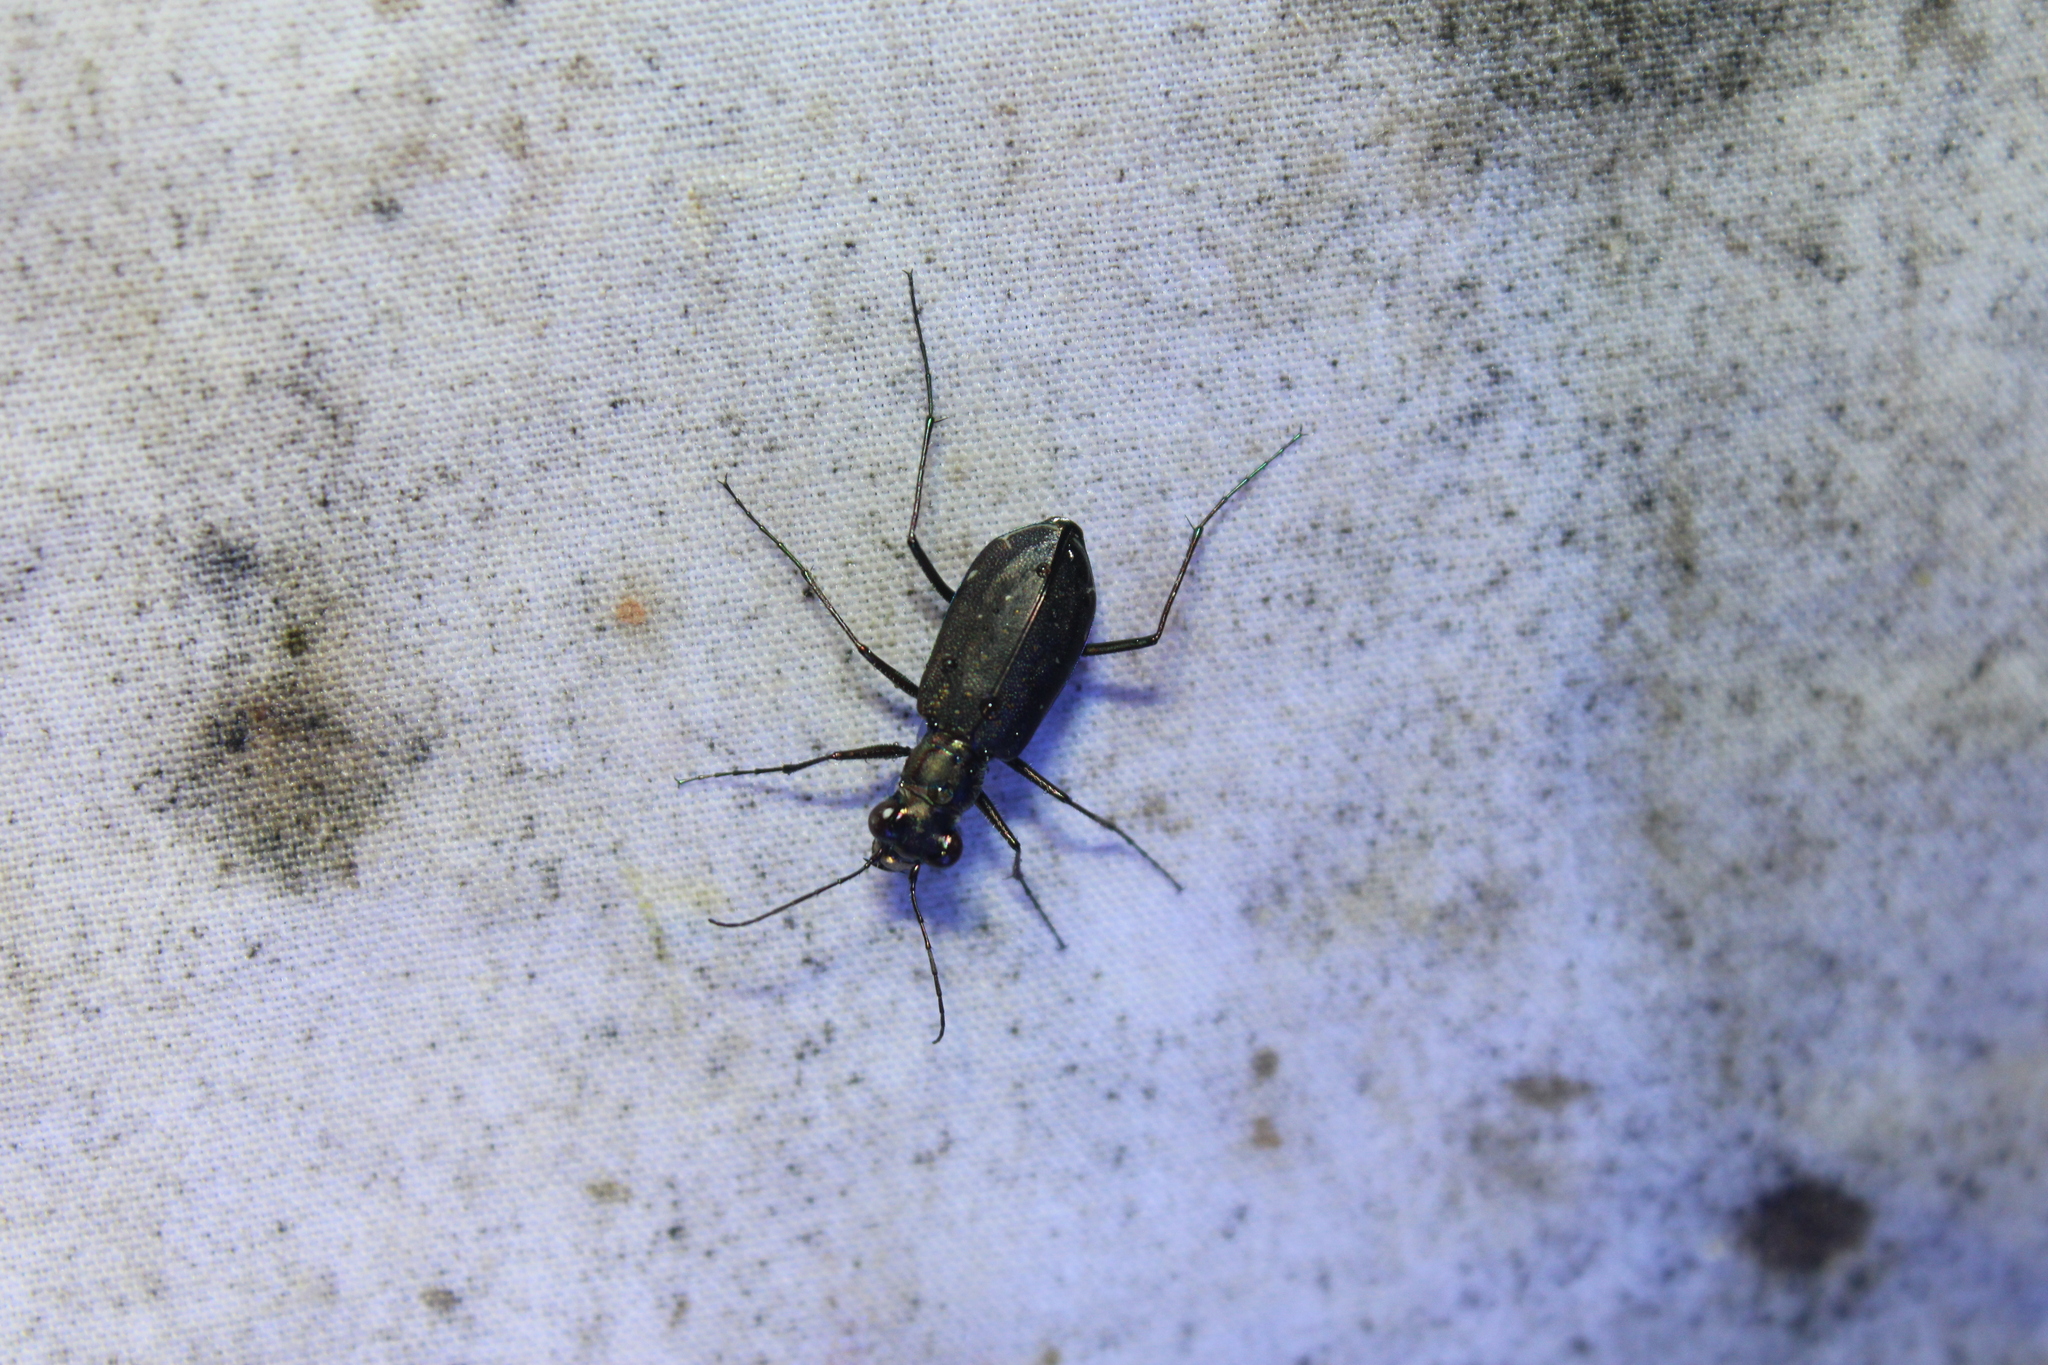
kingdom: Animalia
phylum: Arthropoda
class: Insecta
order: Coleoptera
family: Carabidae
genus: Cicindela
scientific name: Cicindela punctulata
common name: Punctured tiger beetle
